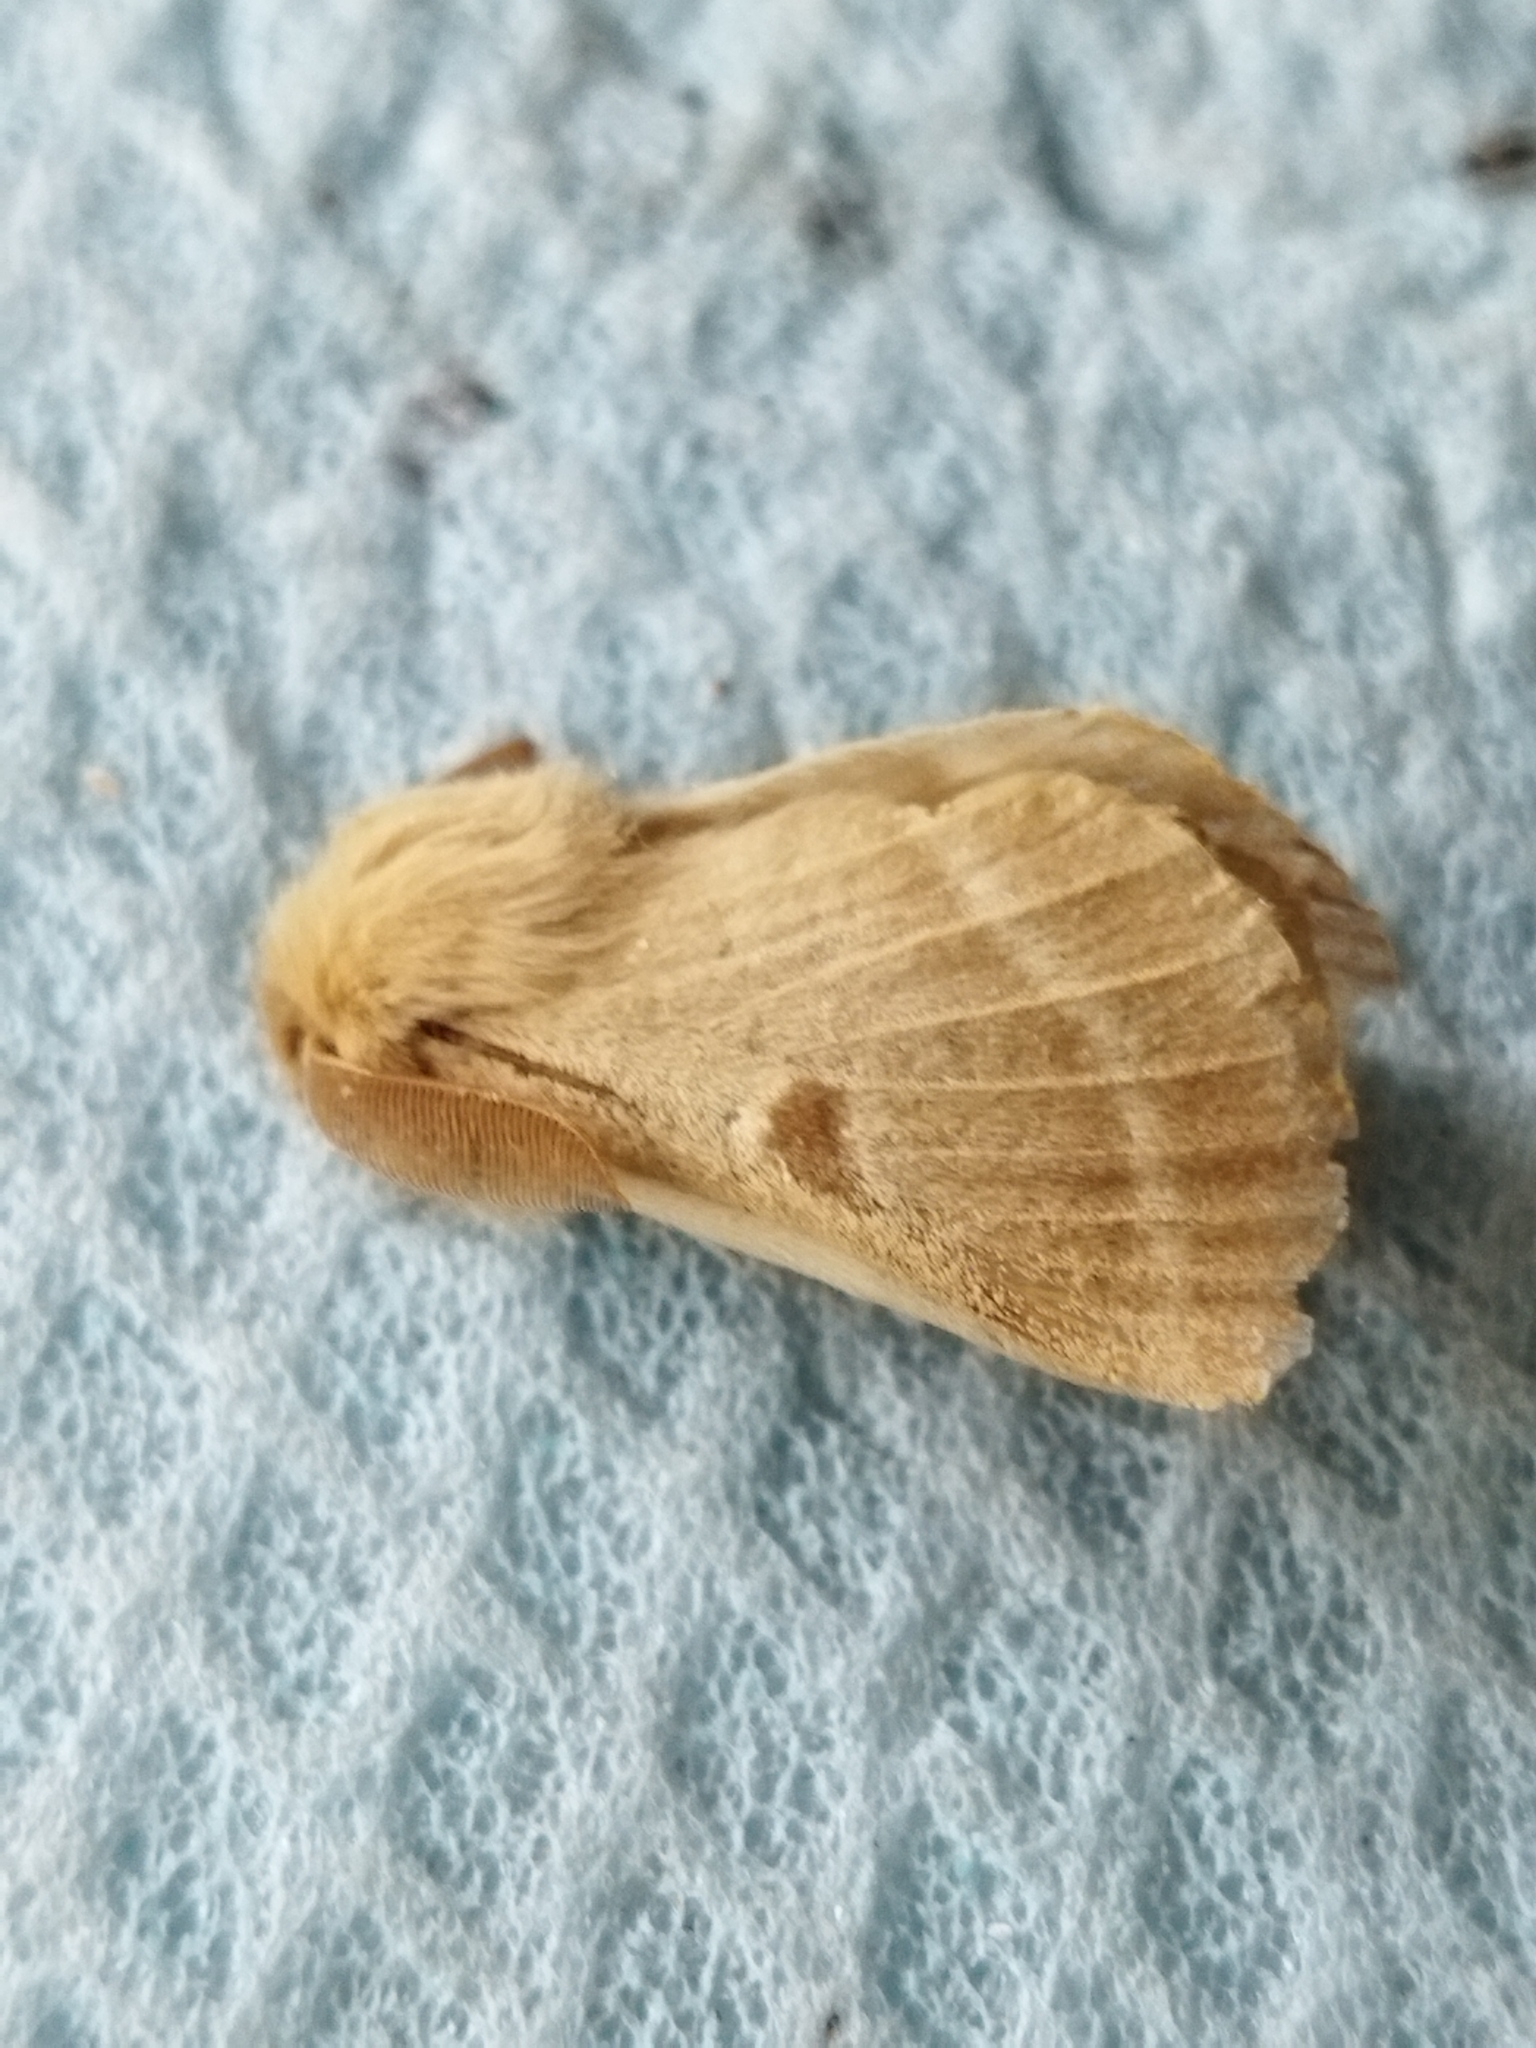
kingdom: Animalia
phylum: Arthropoda
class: Insecta
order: Lepidoptera
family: Brahmaeidae
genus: Lemonia
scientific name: Lemonia balcanica
